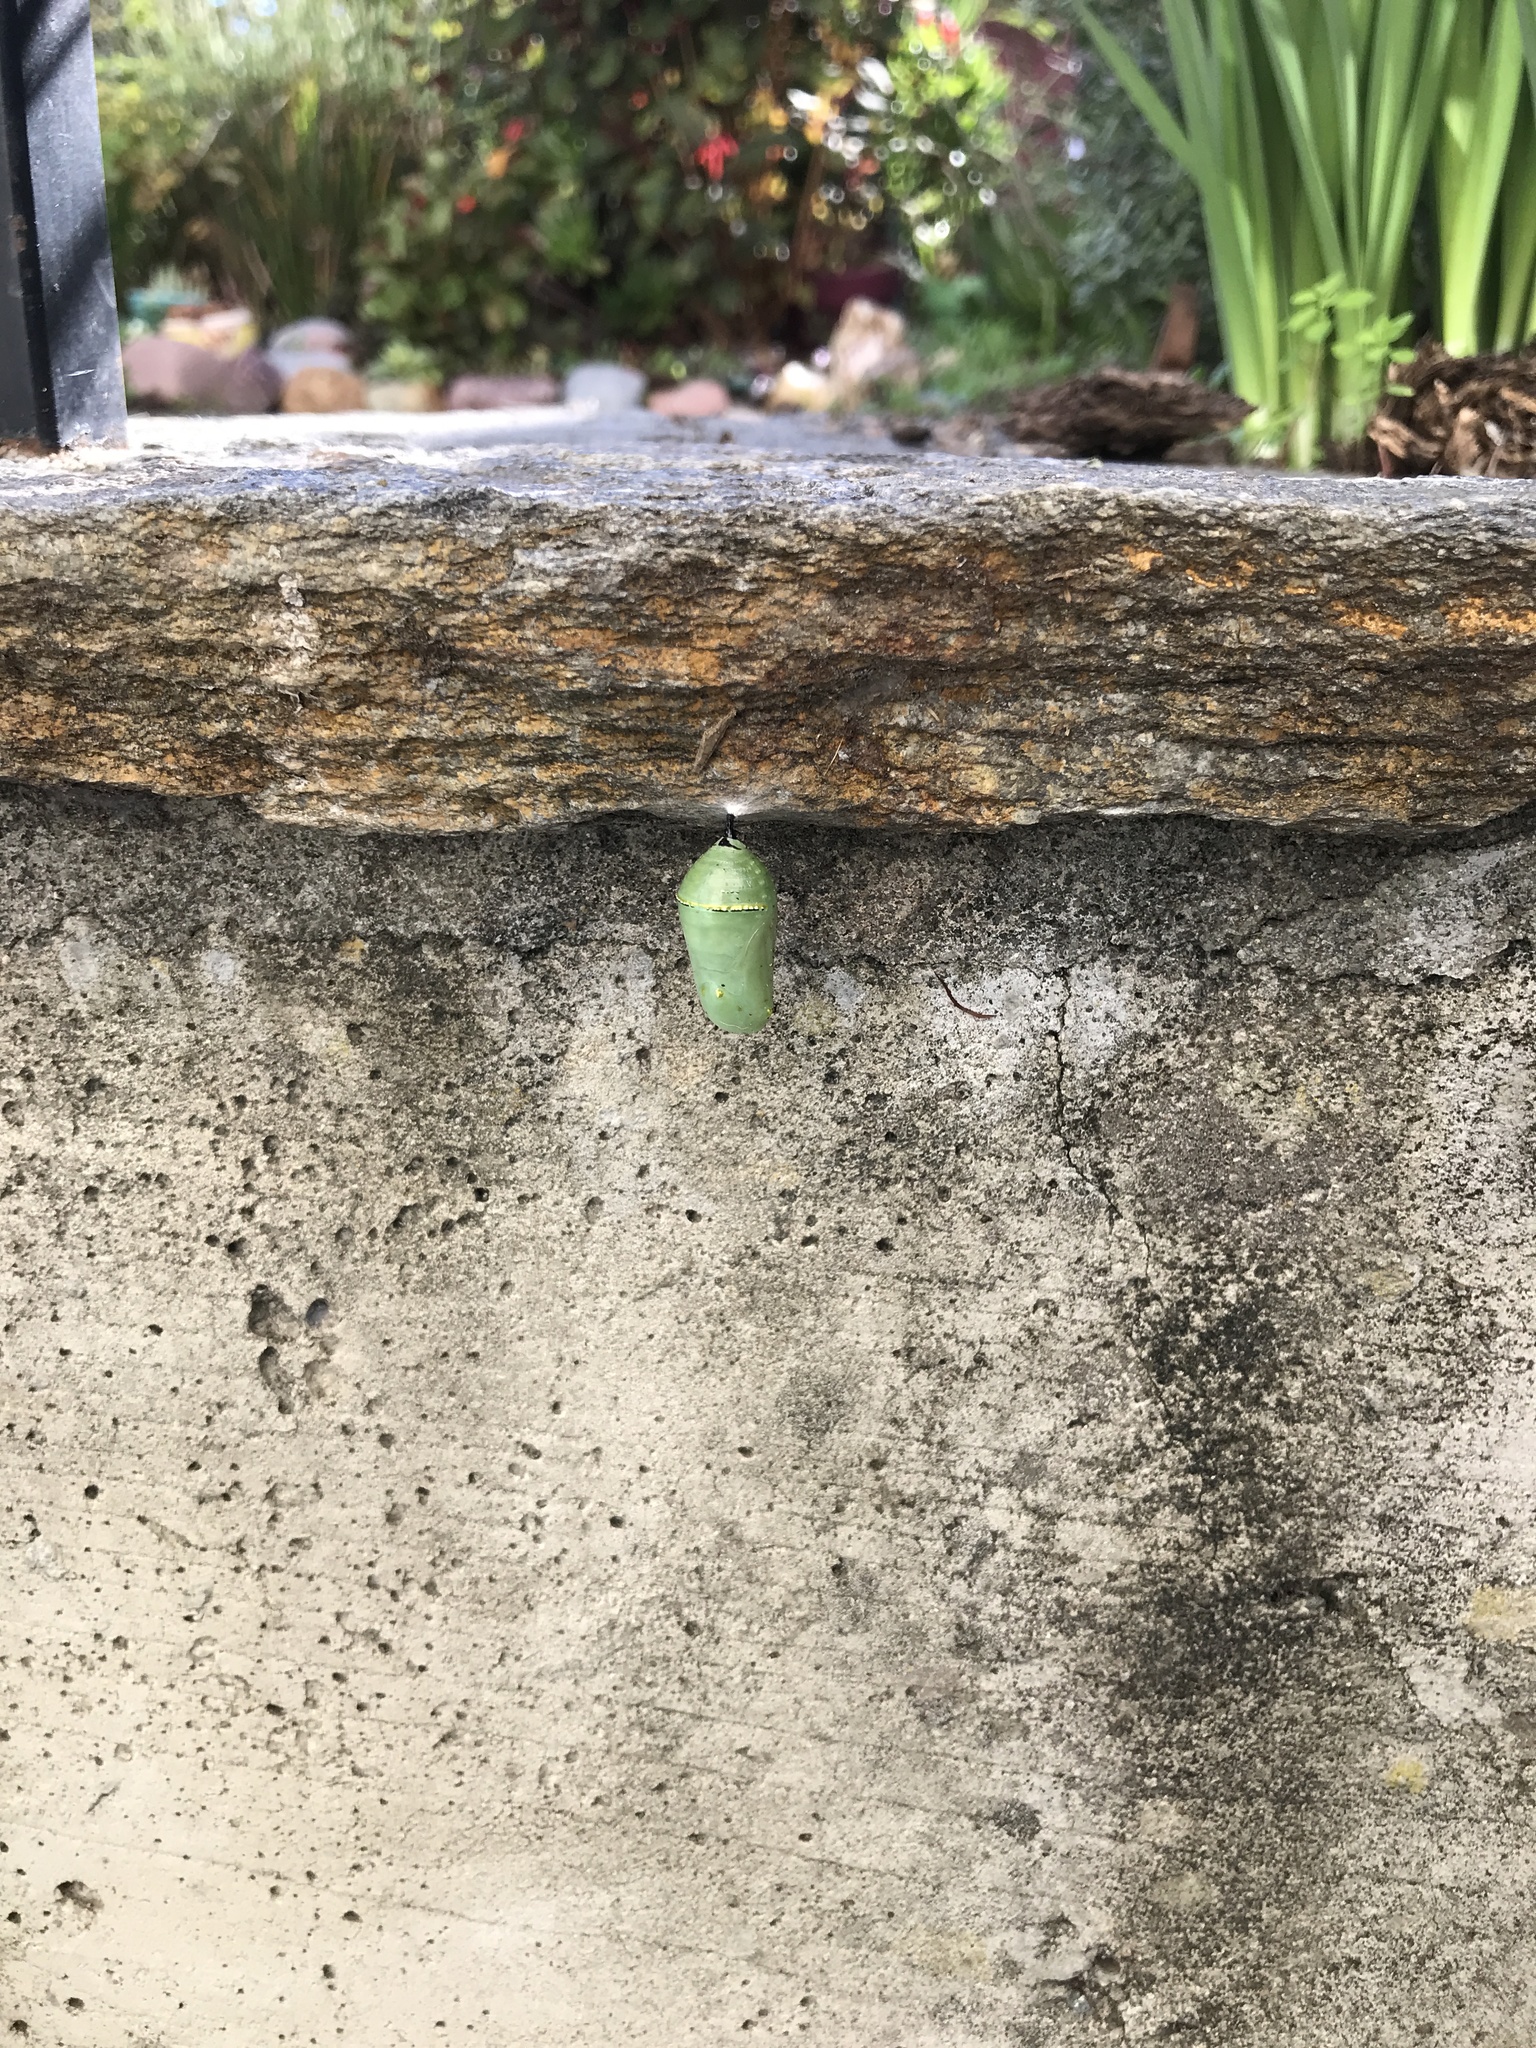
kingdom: Animalia
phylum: Arthropoda
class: Insecta
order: Lepidoptera
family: Nymphalidae
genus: Danaus
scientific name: Danaus plexippus
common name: Monarch
